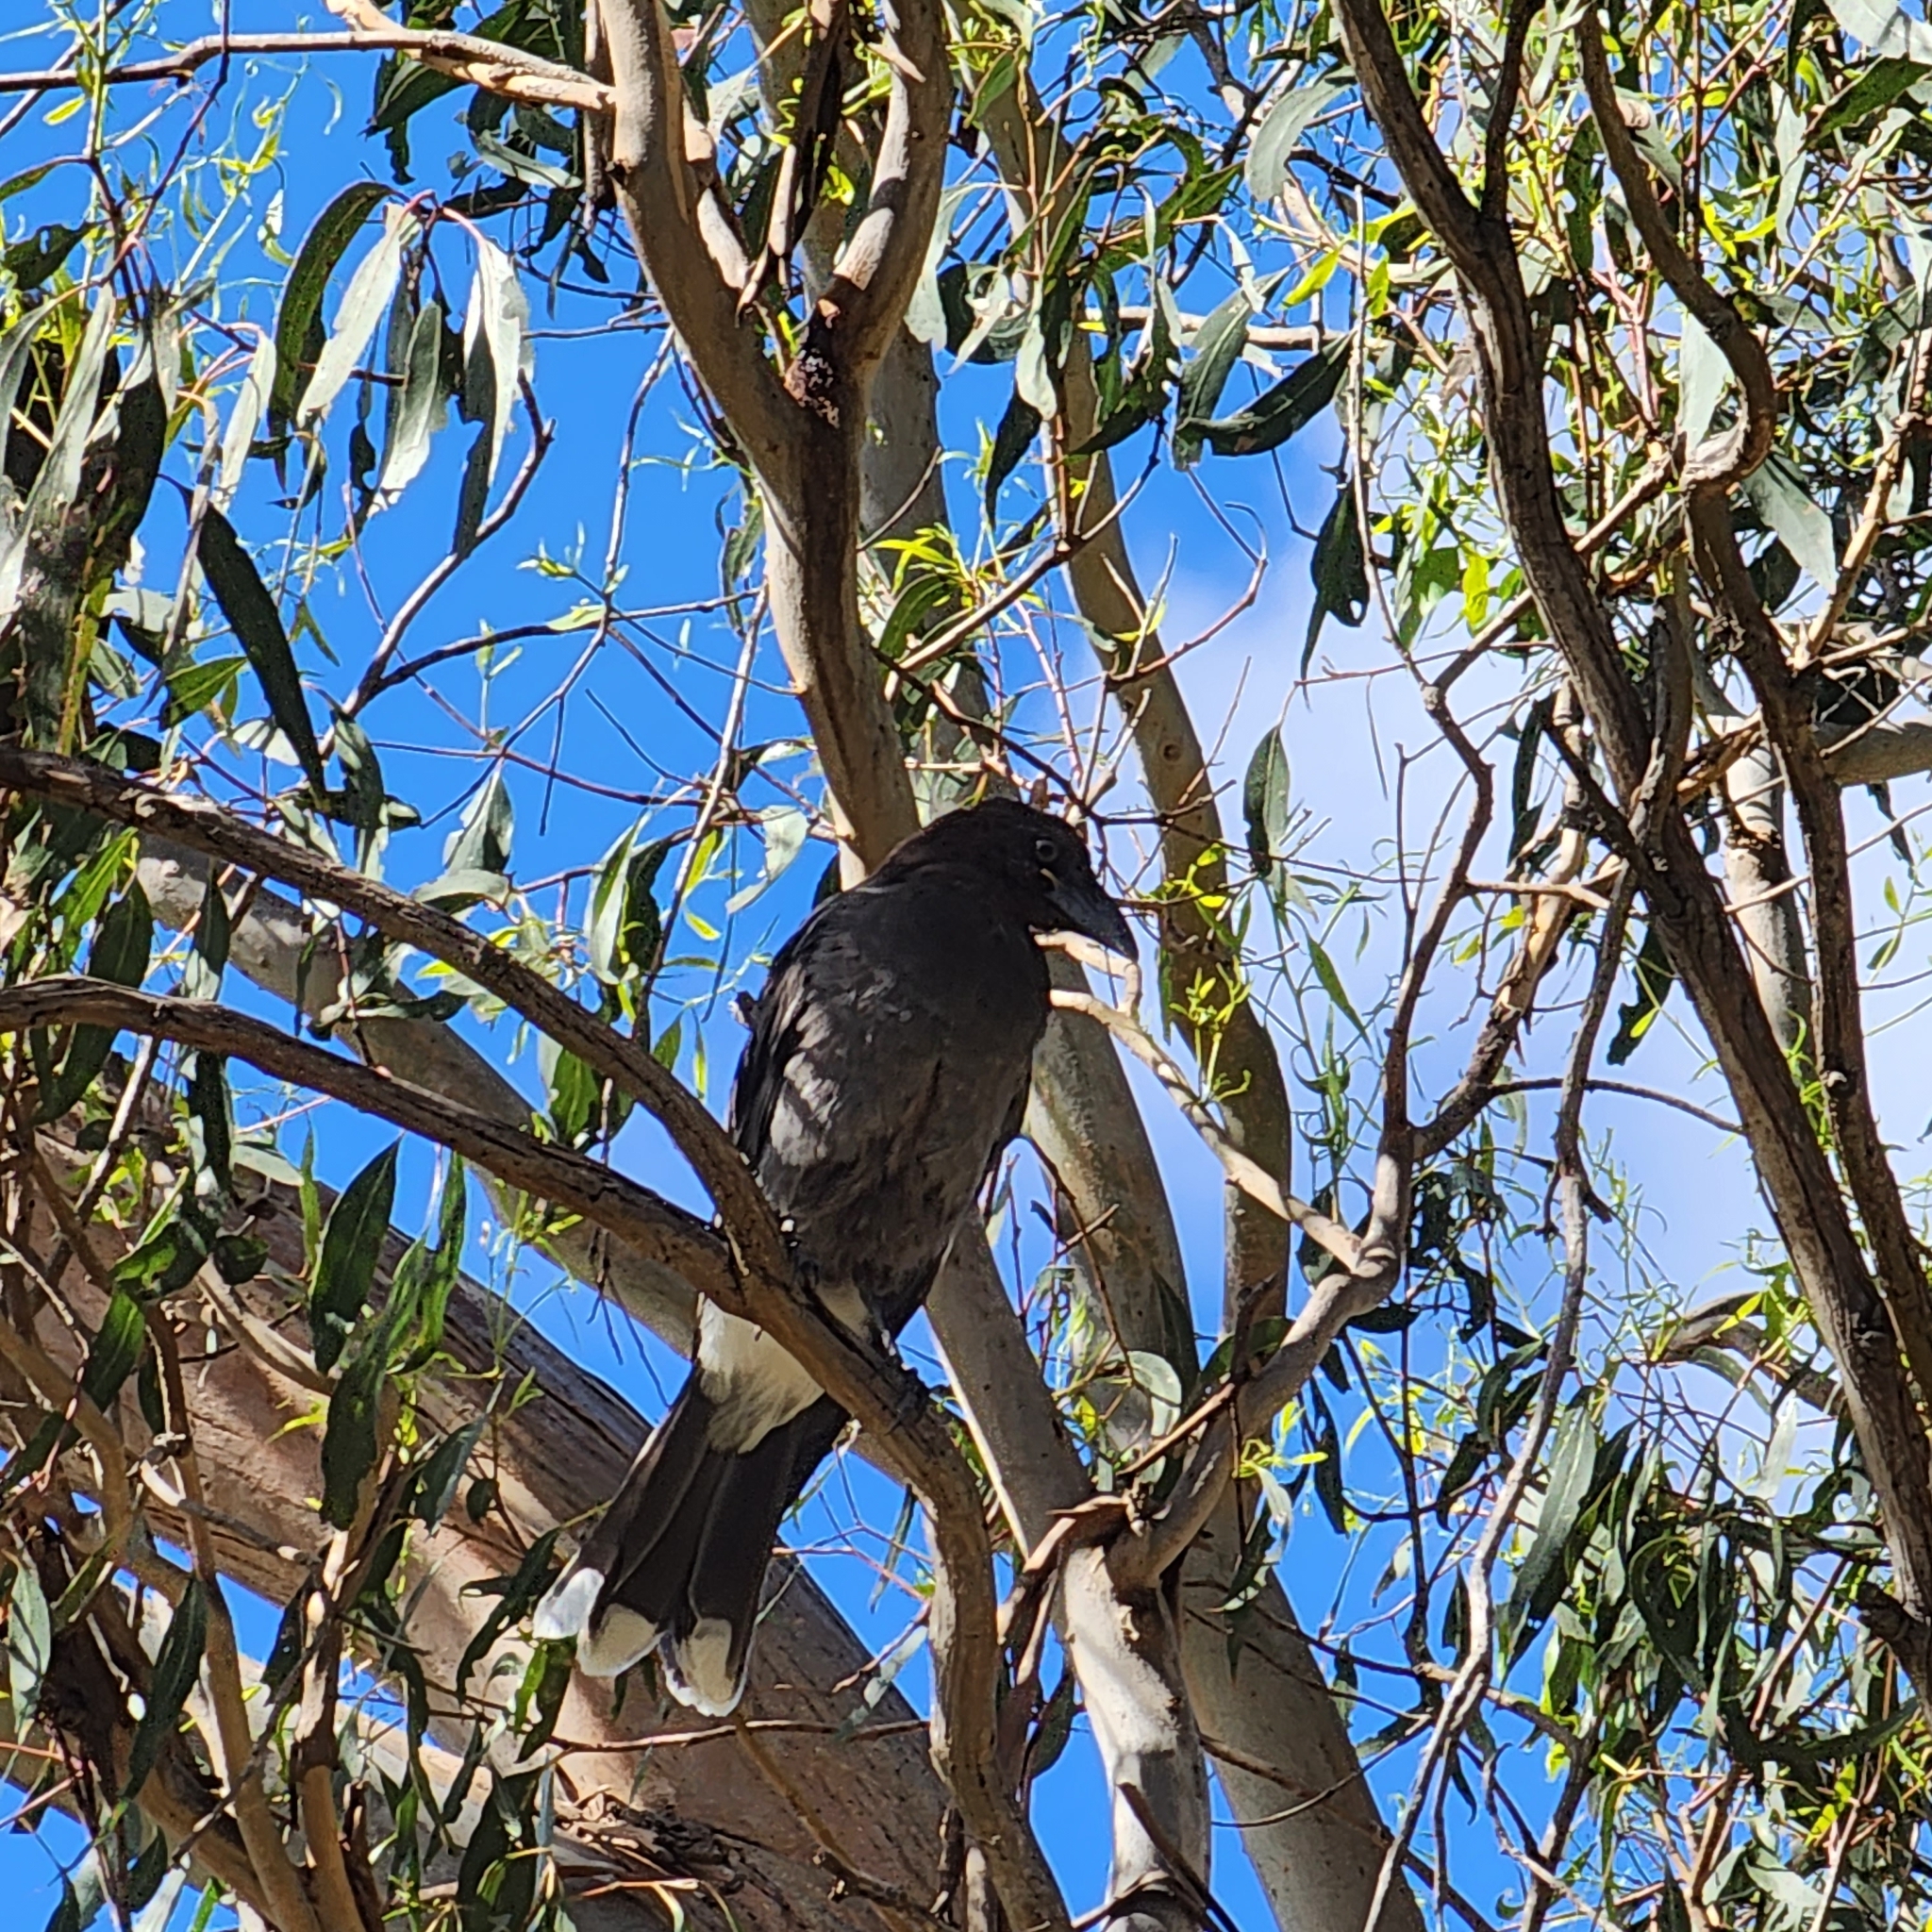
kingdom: Animalia
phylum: Chordata
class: Aves
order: Passeriformes
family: Cracticidae
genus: Strepera
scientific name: Strepera graculina
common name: Pied currawong
